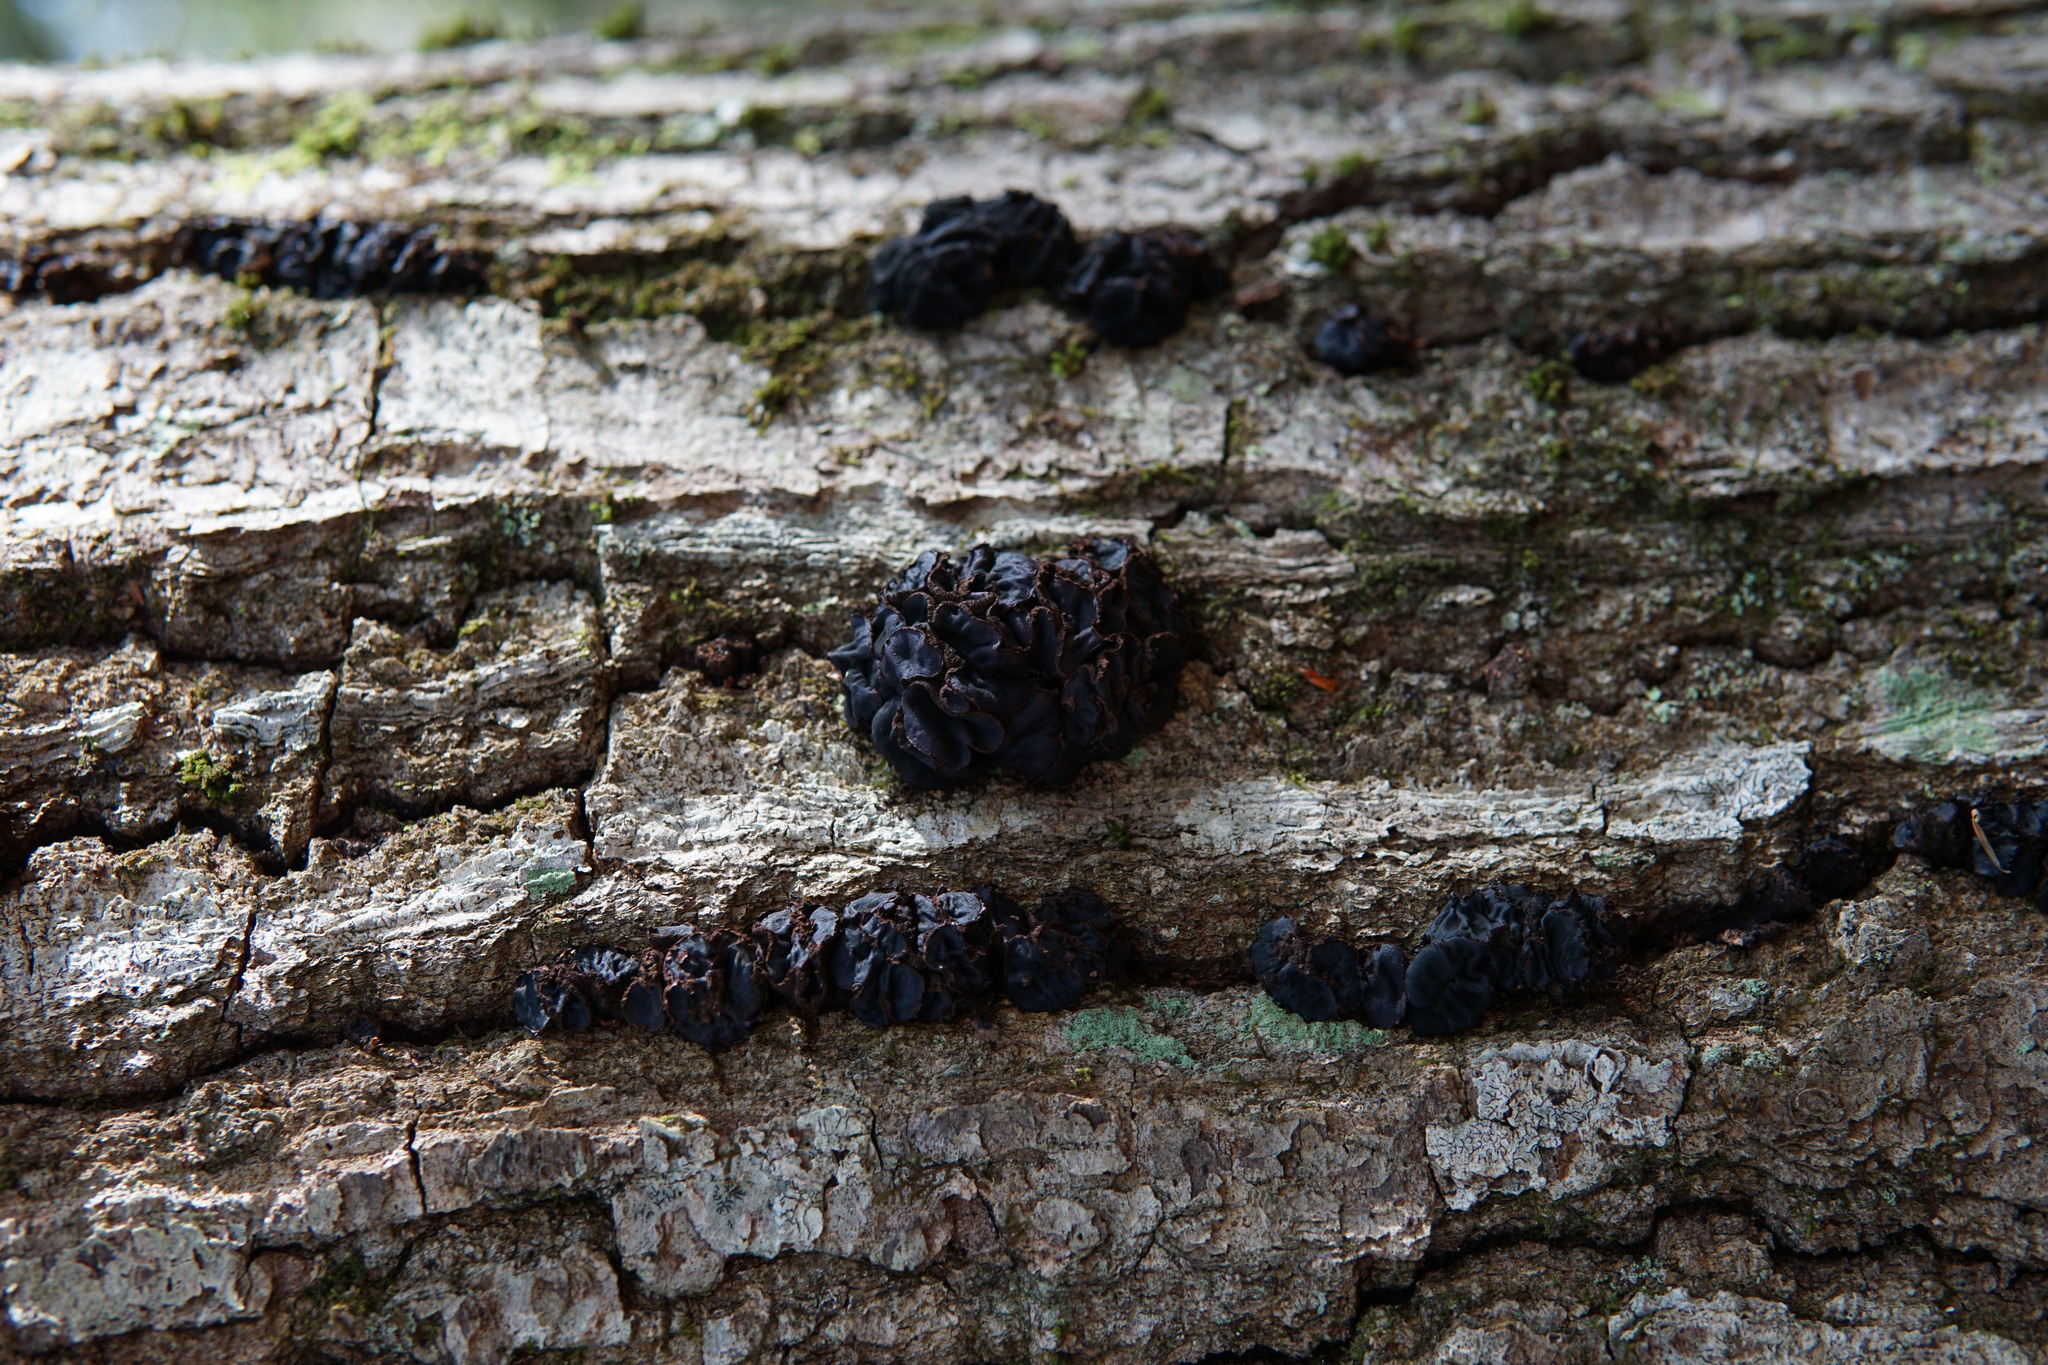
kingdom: Fungi
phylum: Ascomycota
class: Leotiomycetes
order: Phacidiales
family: Phacidiaceae
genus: Bulgaria
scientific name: Bulgaria inquinans
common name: Black bulgar
